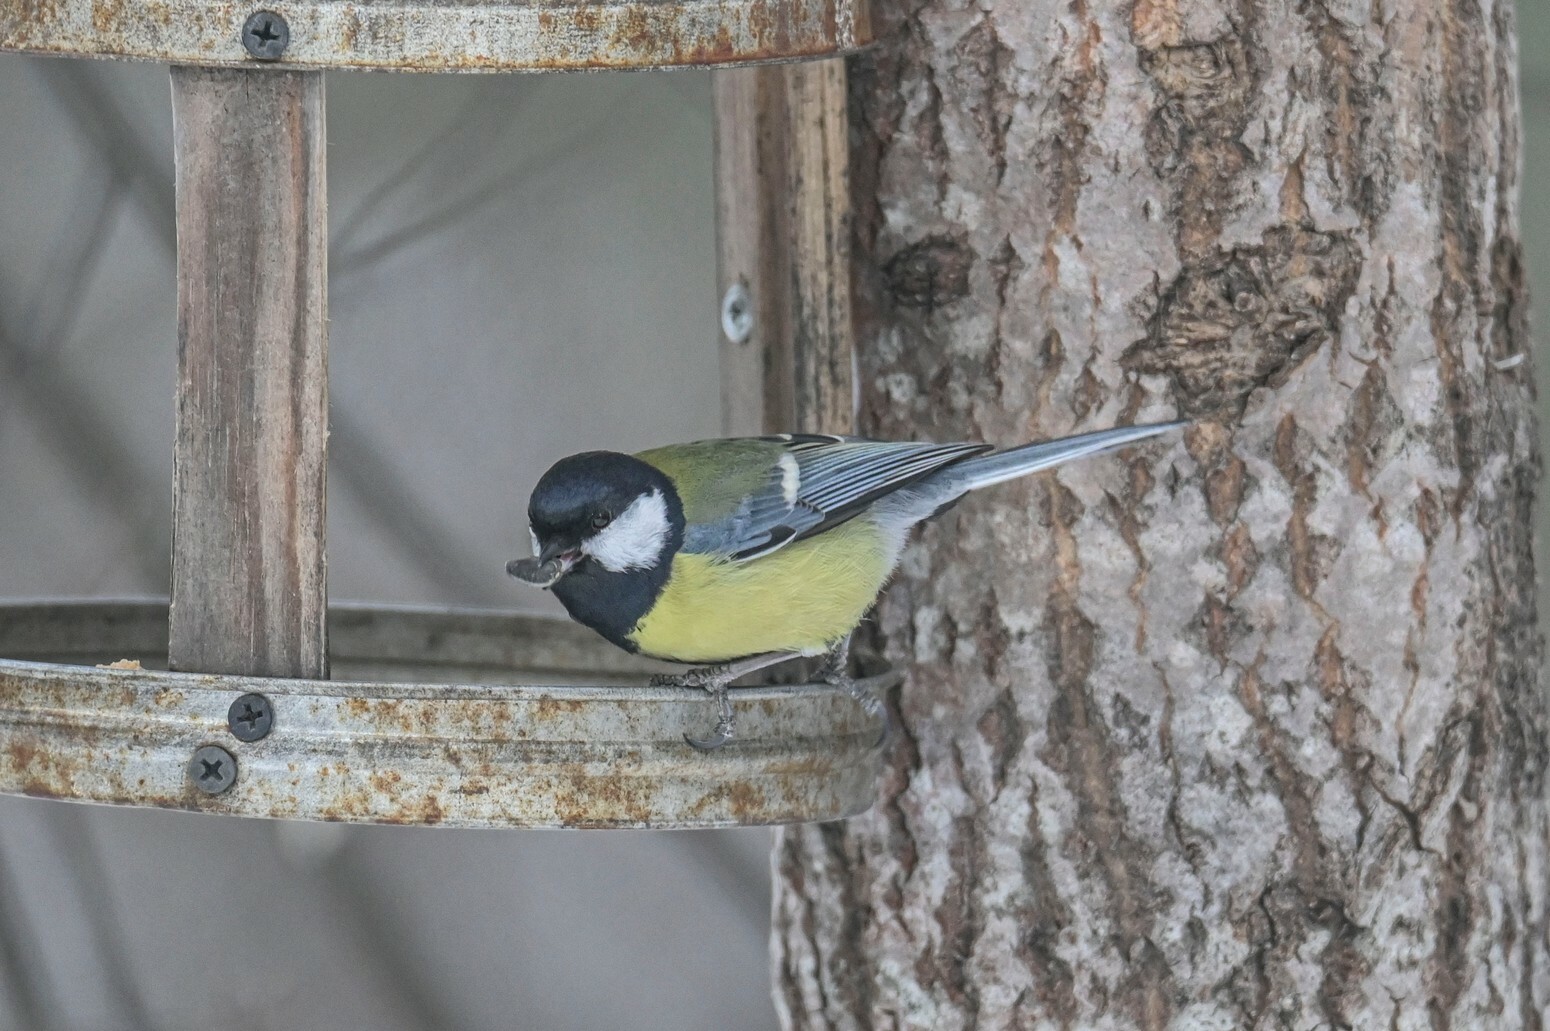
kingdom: Animalia
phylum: Chordata
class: Aves
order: Passeriformes
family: Paridae
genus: Parus
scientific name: Parus major
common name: Great tit
